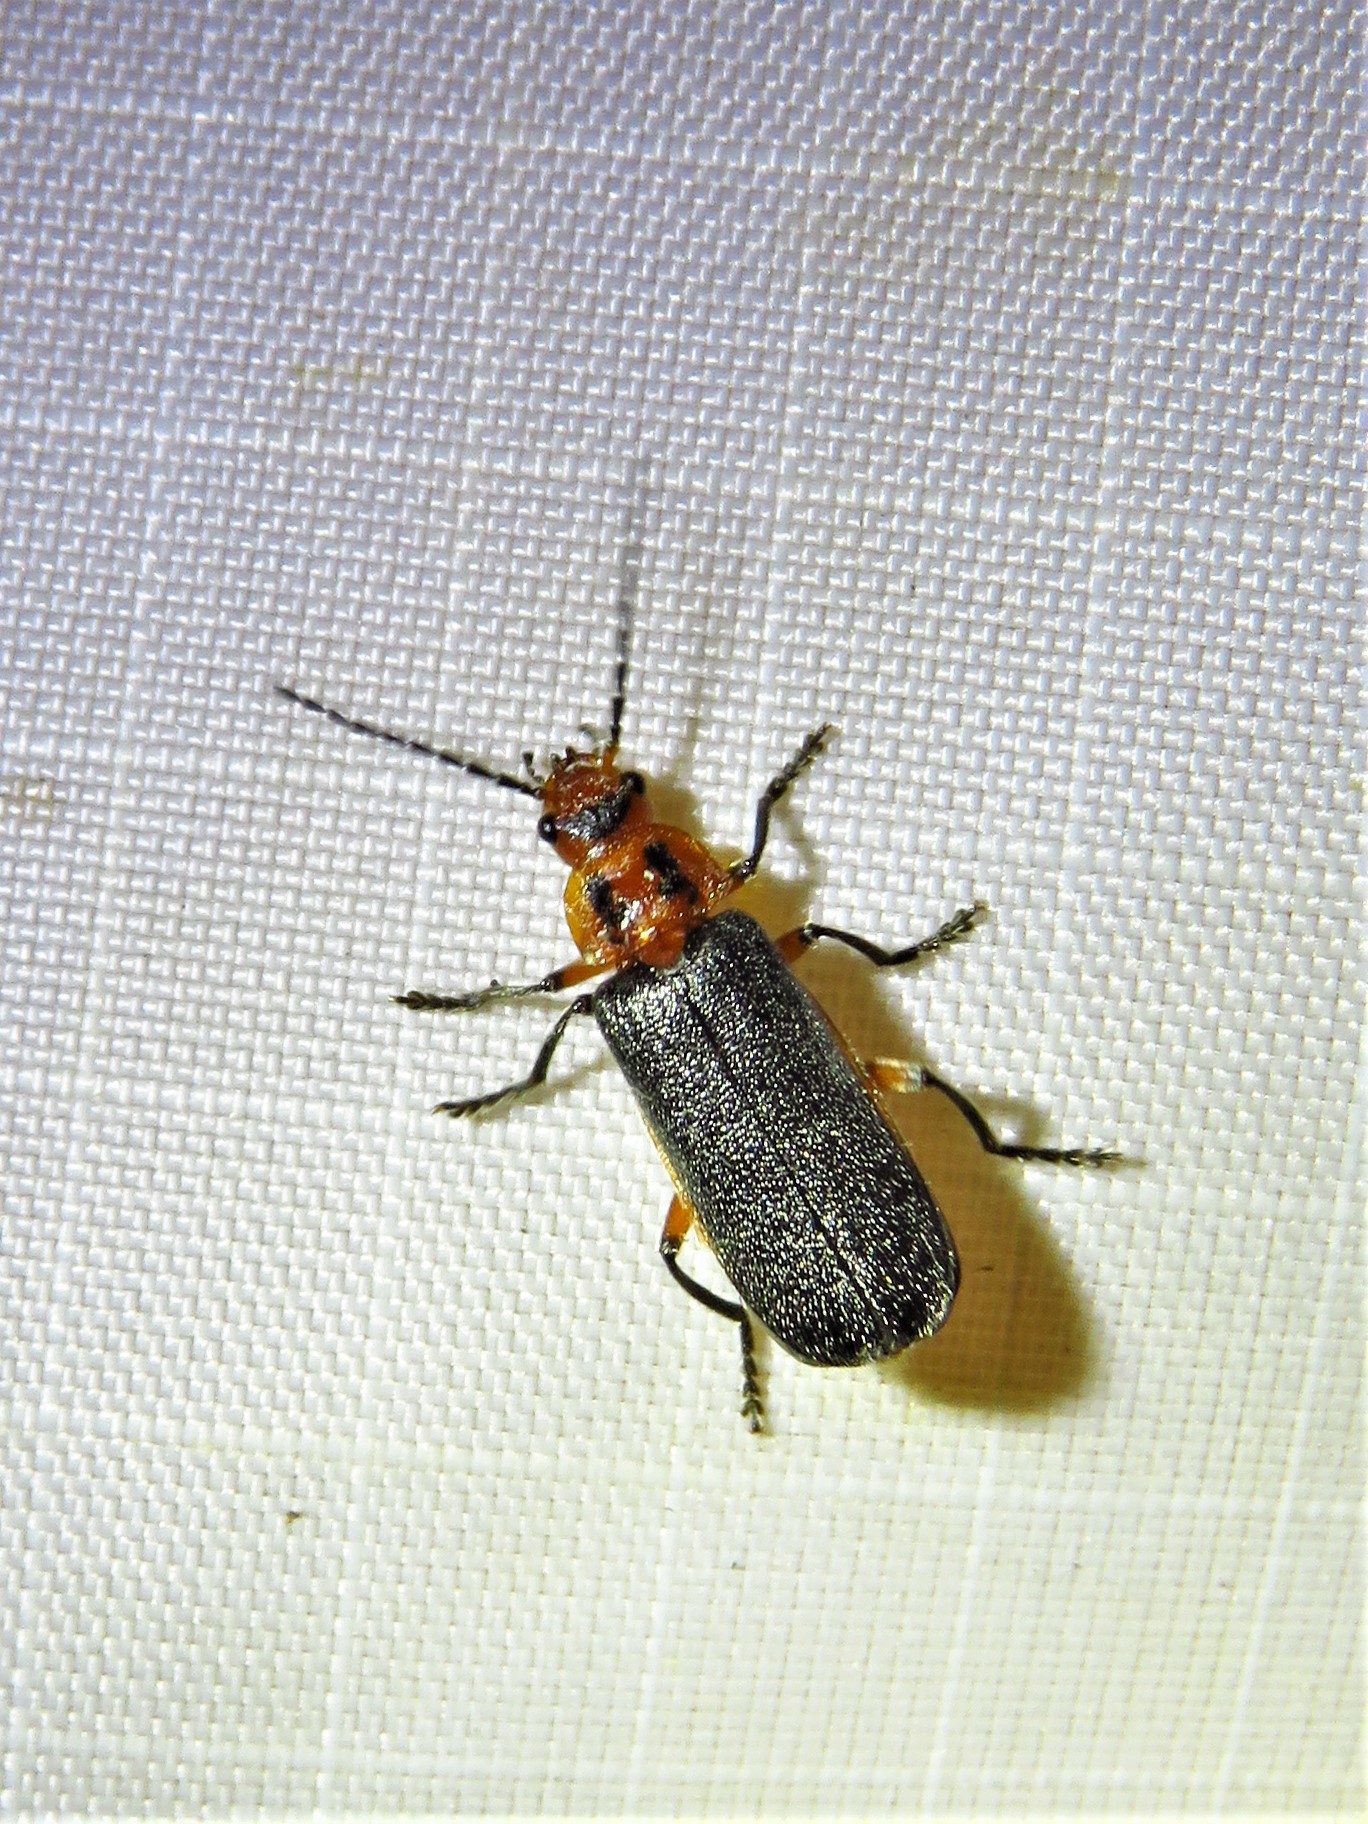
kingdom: Animalia
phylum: Arthropoda
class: Insecta
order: Coleoptera
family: Cantharidae
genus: Atalantycha
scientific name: Atalantycha bilineata
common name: Two-lined leatherwing
